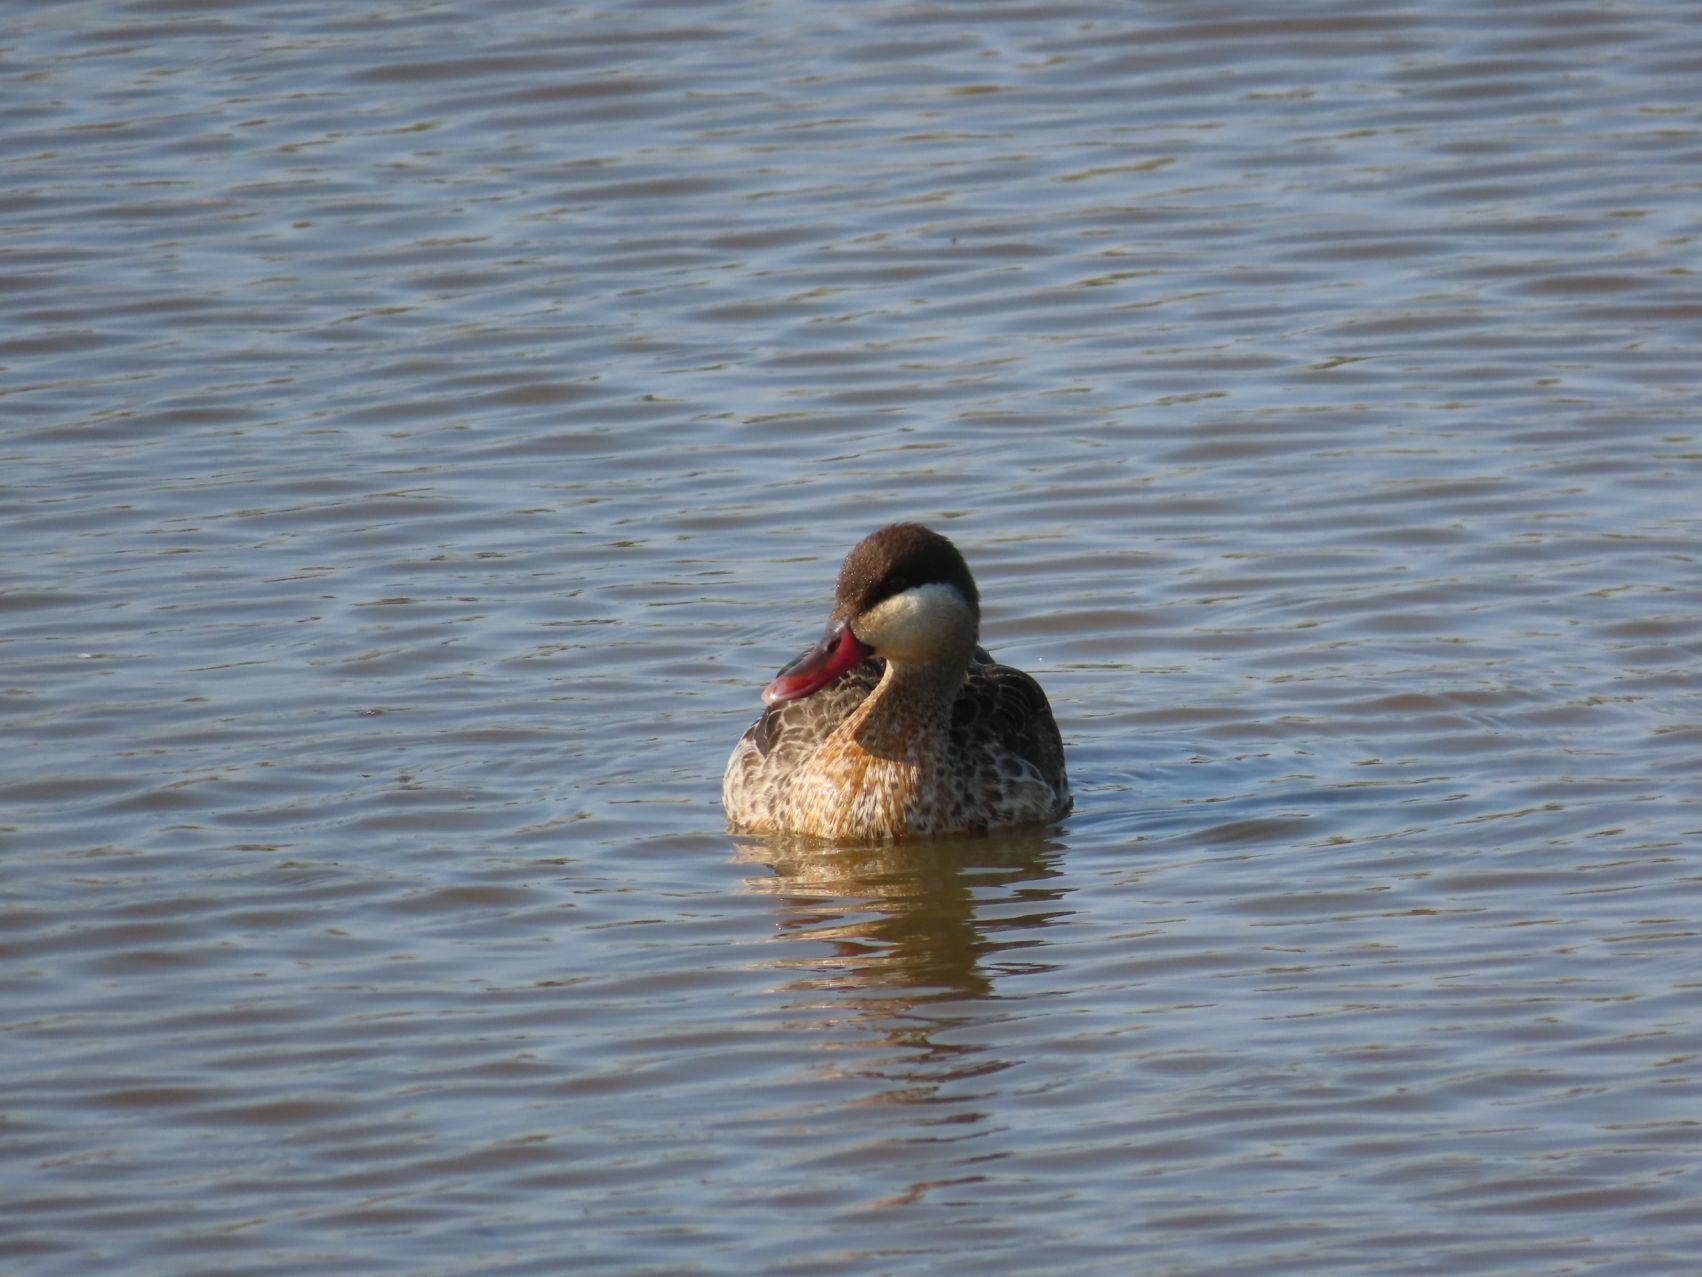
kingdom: Animalia
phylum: Chordata
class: Aves
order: Anseriformes
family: Anatidae
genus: Anas
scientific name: Anas erythrorhyncha
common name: Red-billed teal
